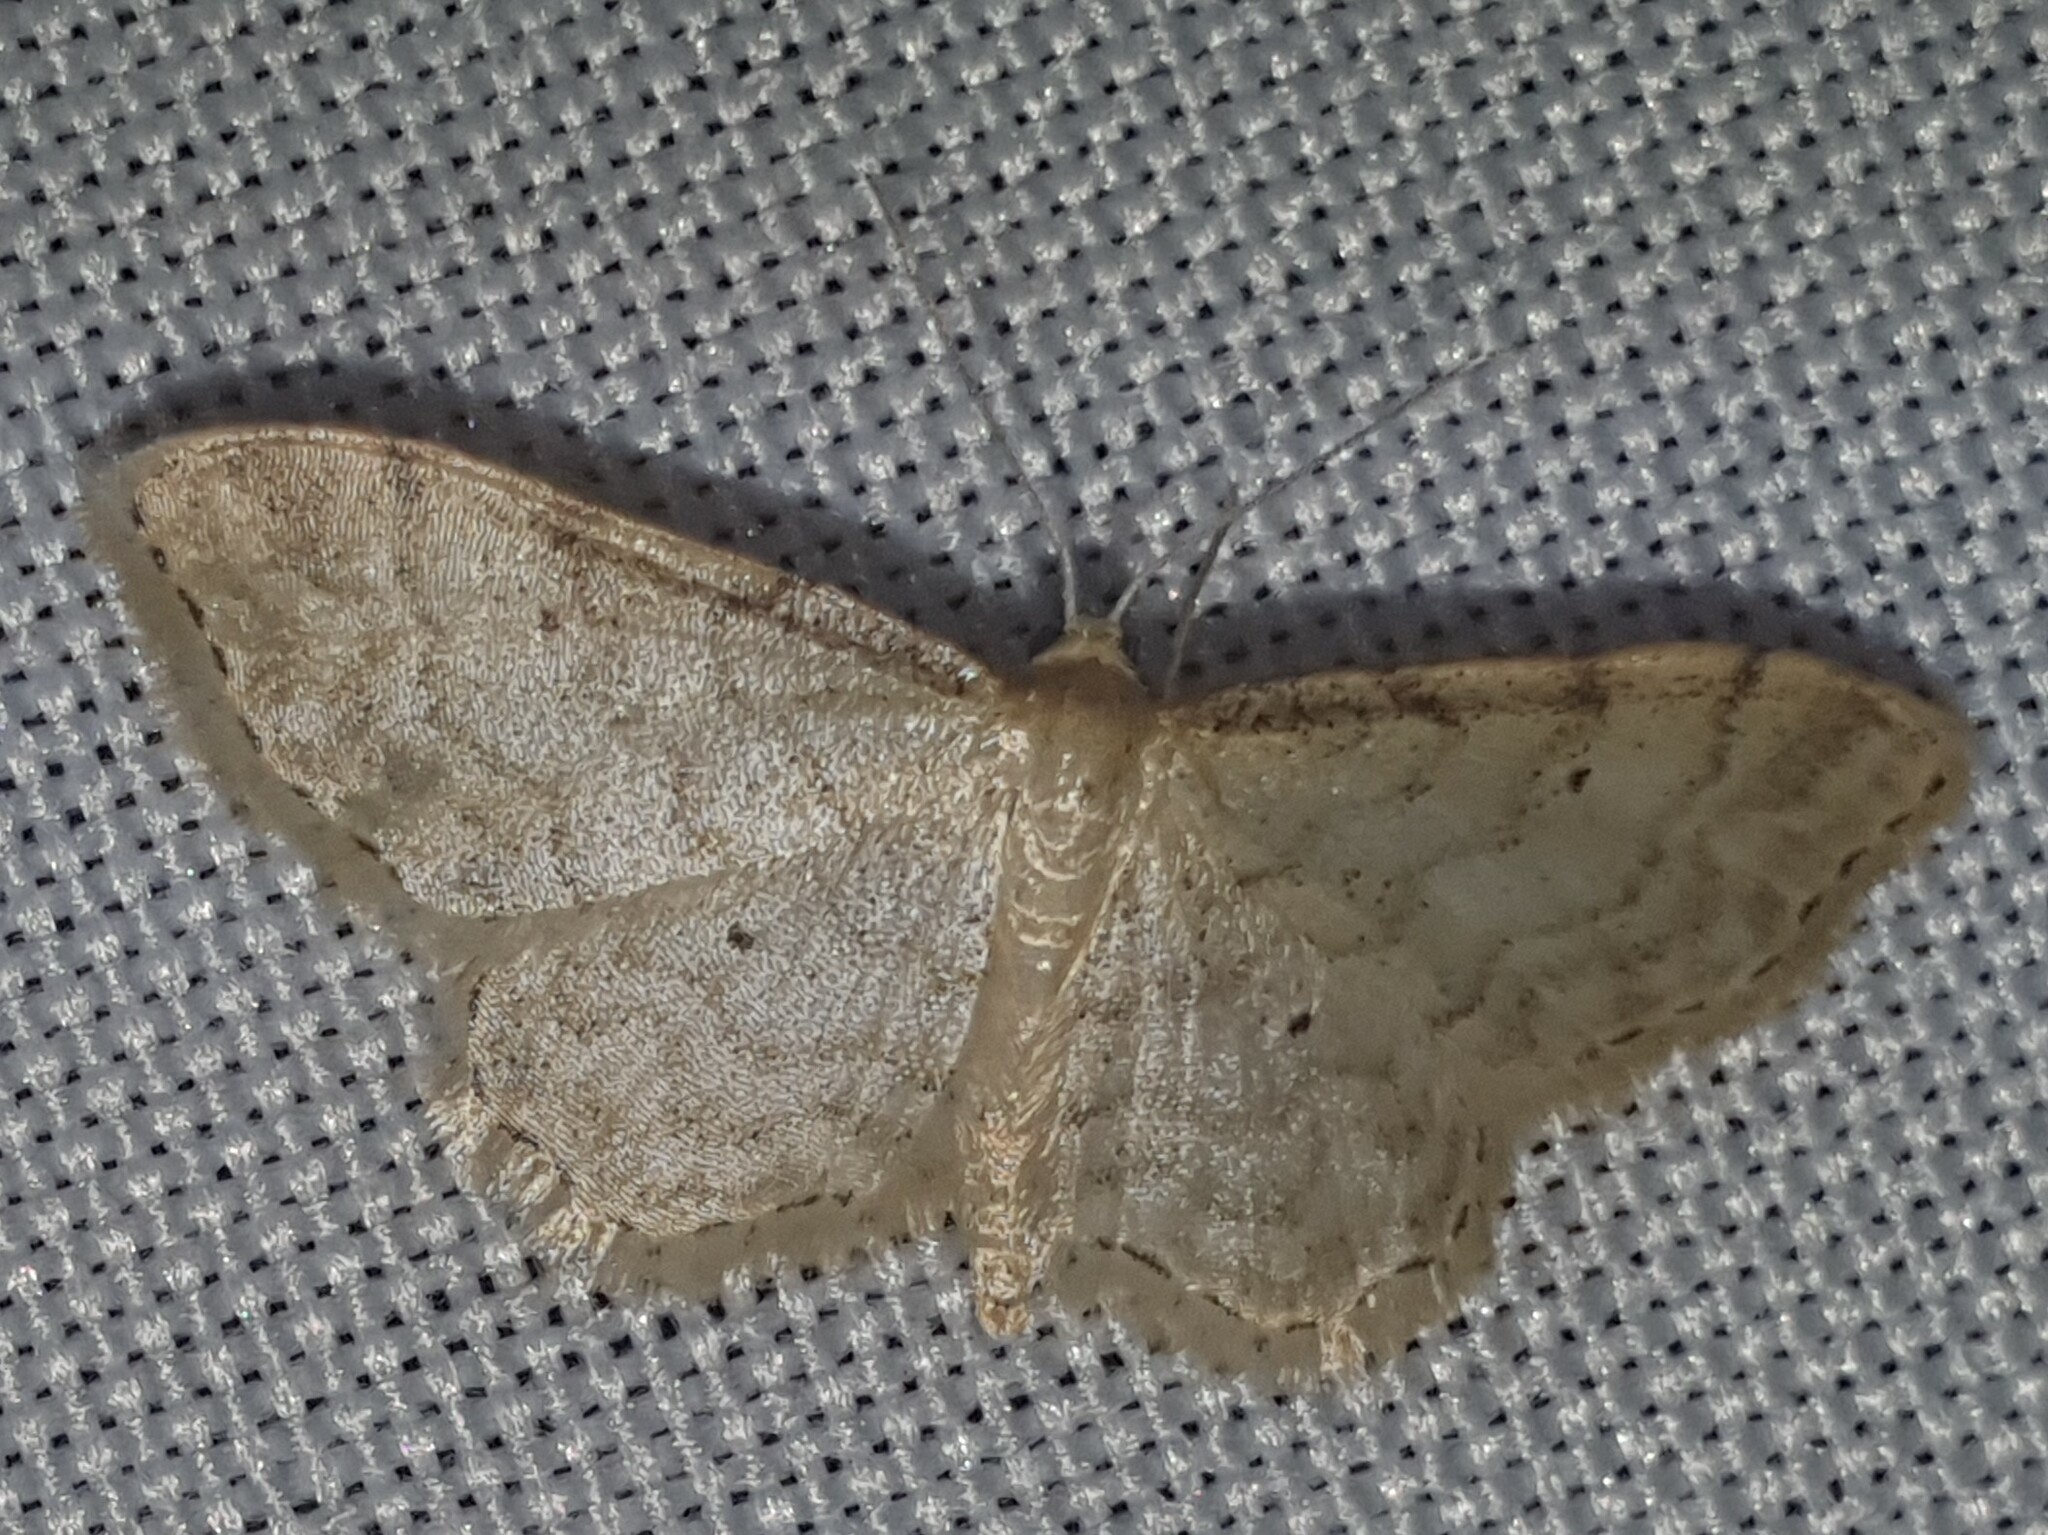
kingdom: Animalia
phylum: Arthropoda
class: Insecta
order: Lepidoptera
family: Geometridae
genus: Idaea
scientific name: Idaea fuscovenosa
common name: Dwarf cream wave
